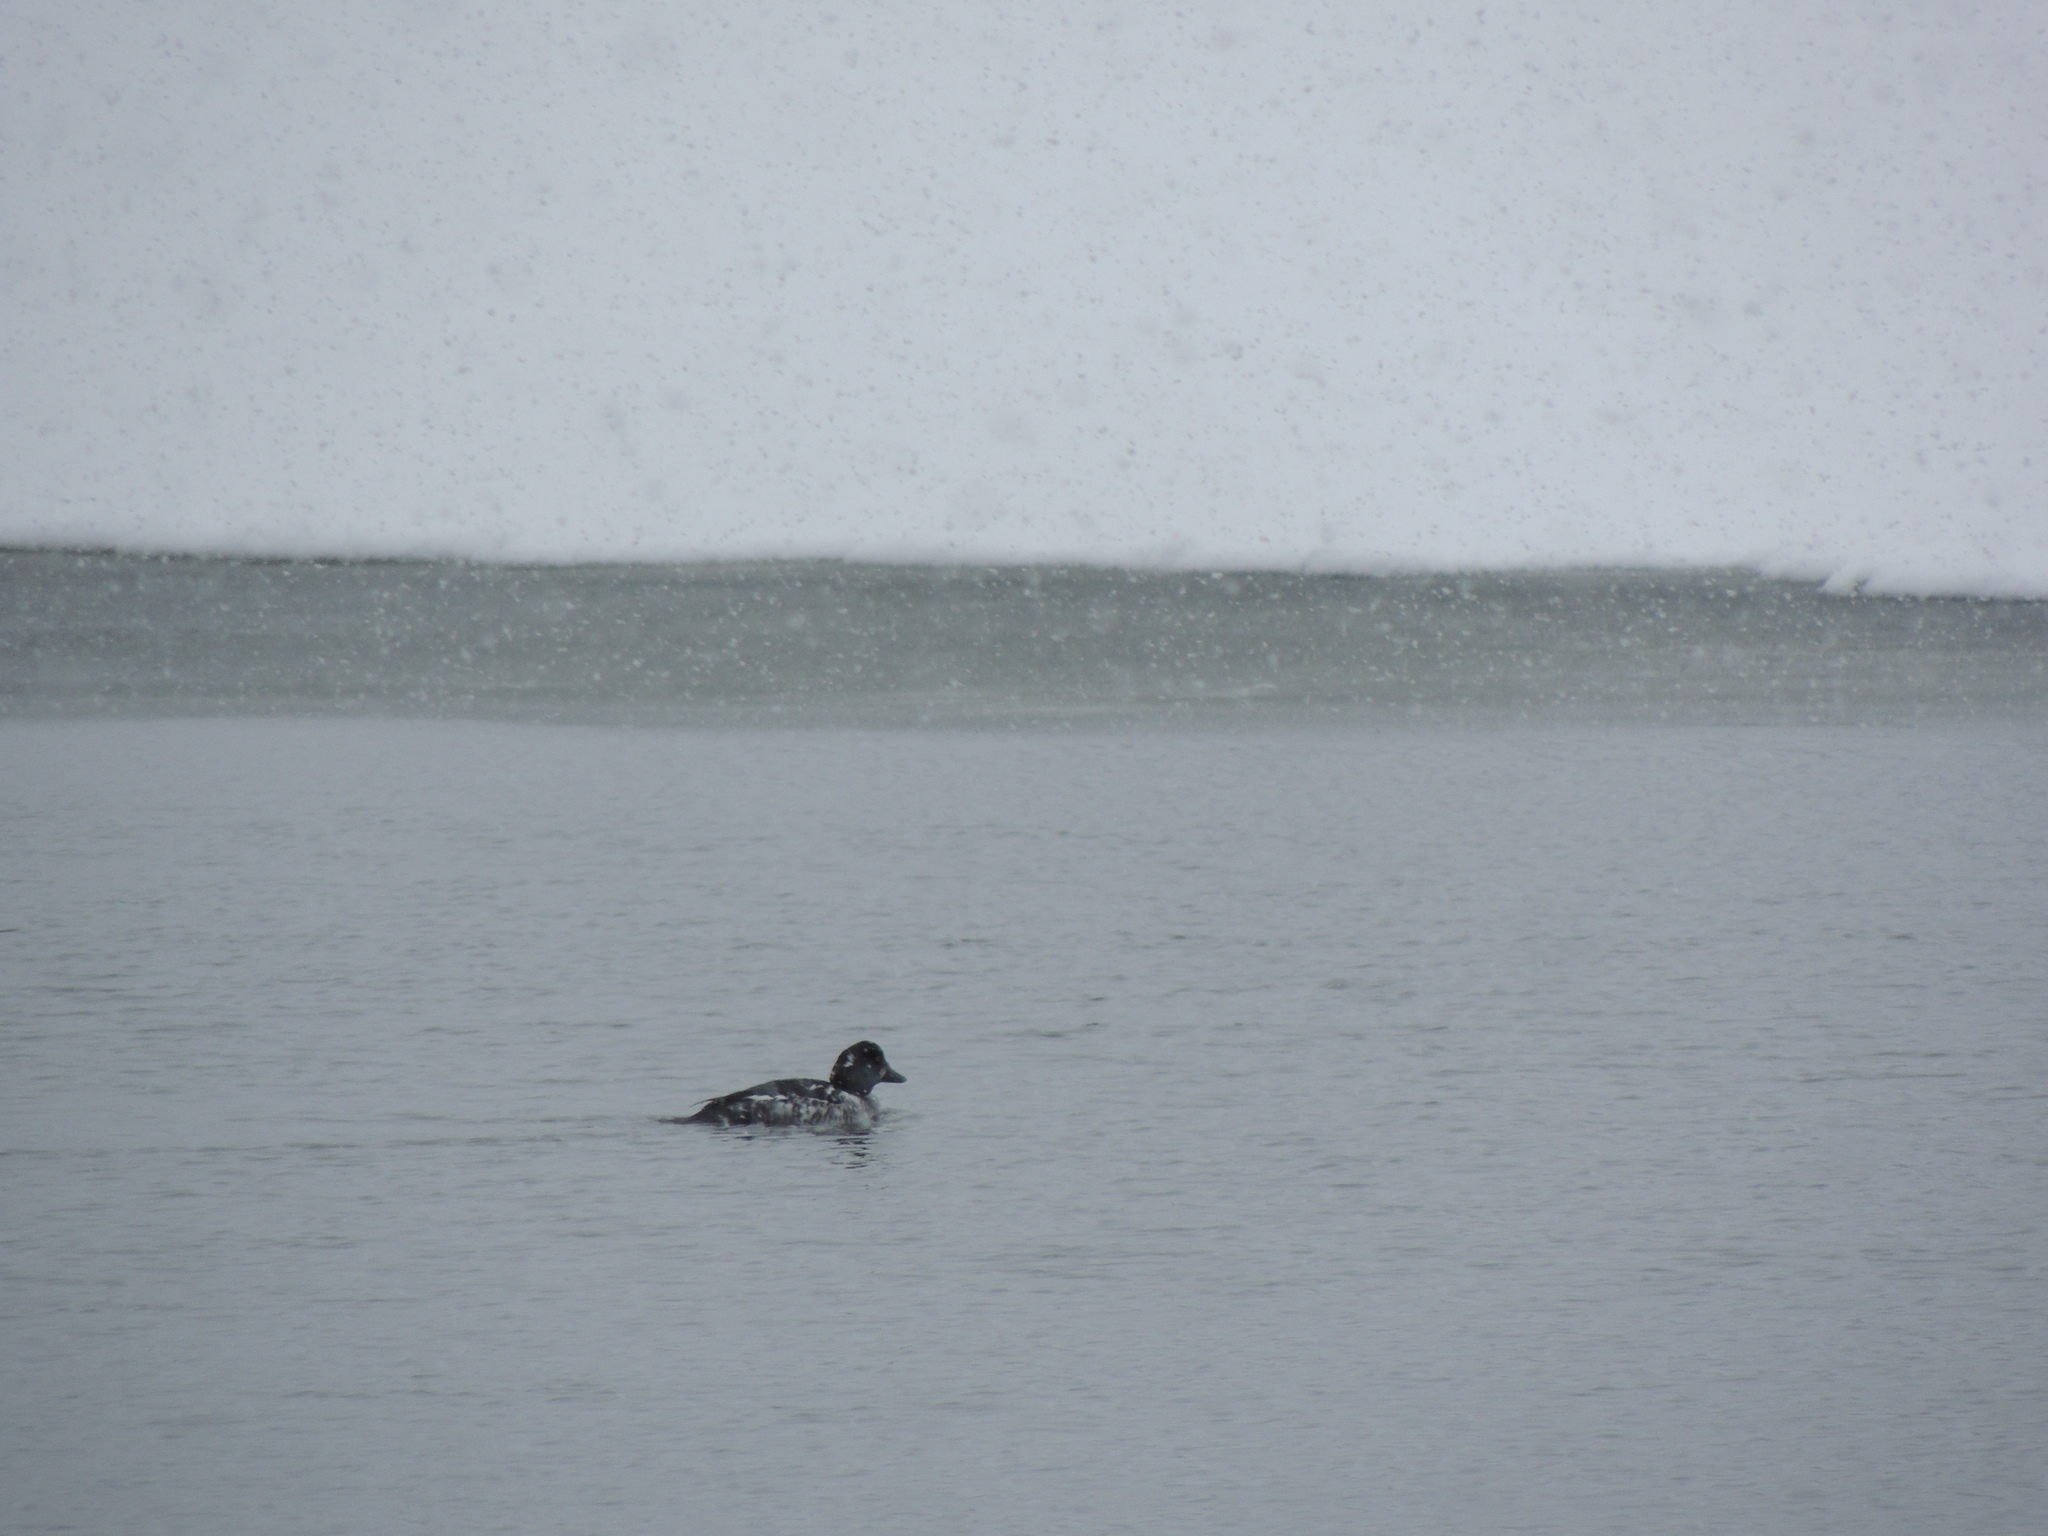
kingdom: Animalia
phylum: Chordata
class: Aves
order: Anseriformes
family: Anatidae
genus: Bucephala
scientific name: Bucephala clangula
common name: Common goldeneye
